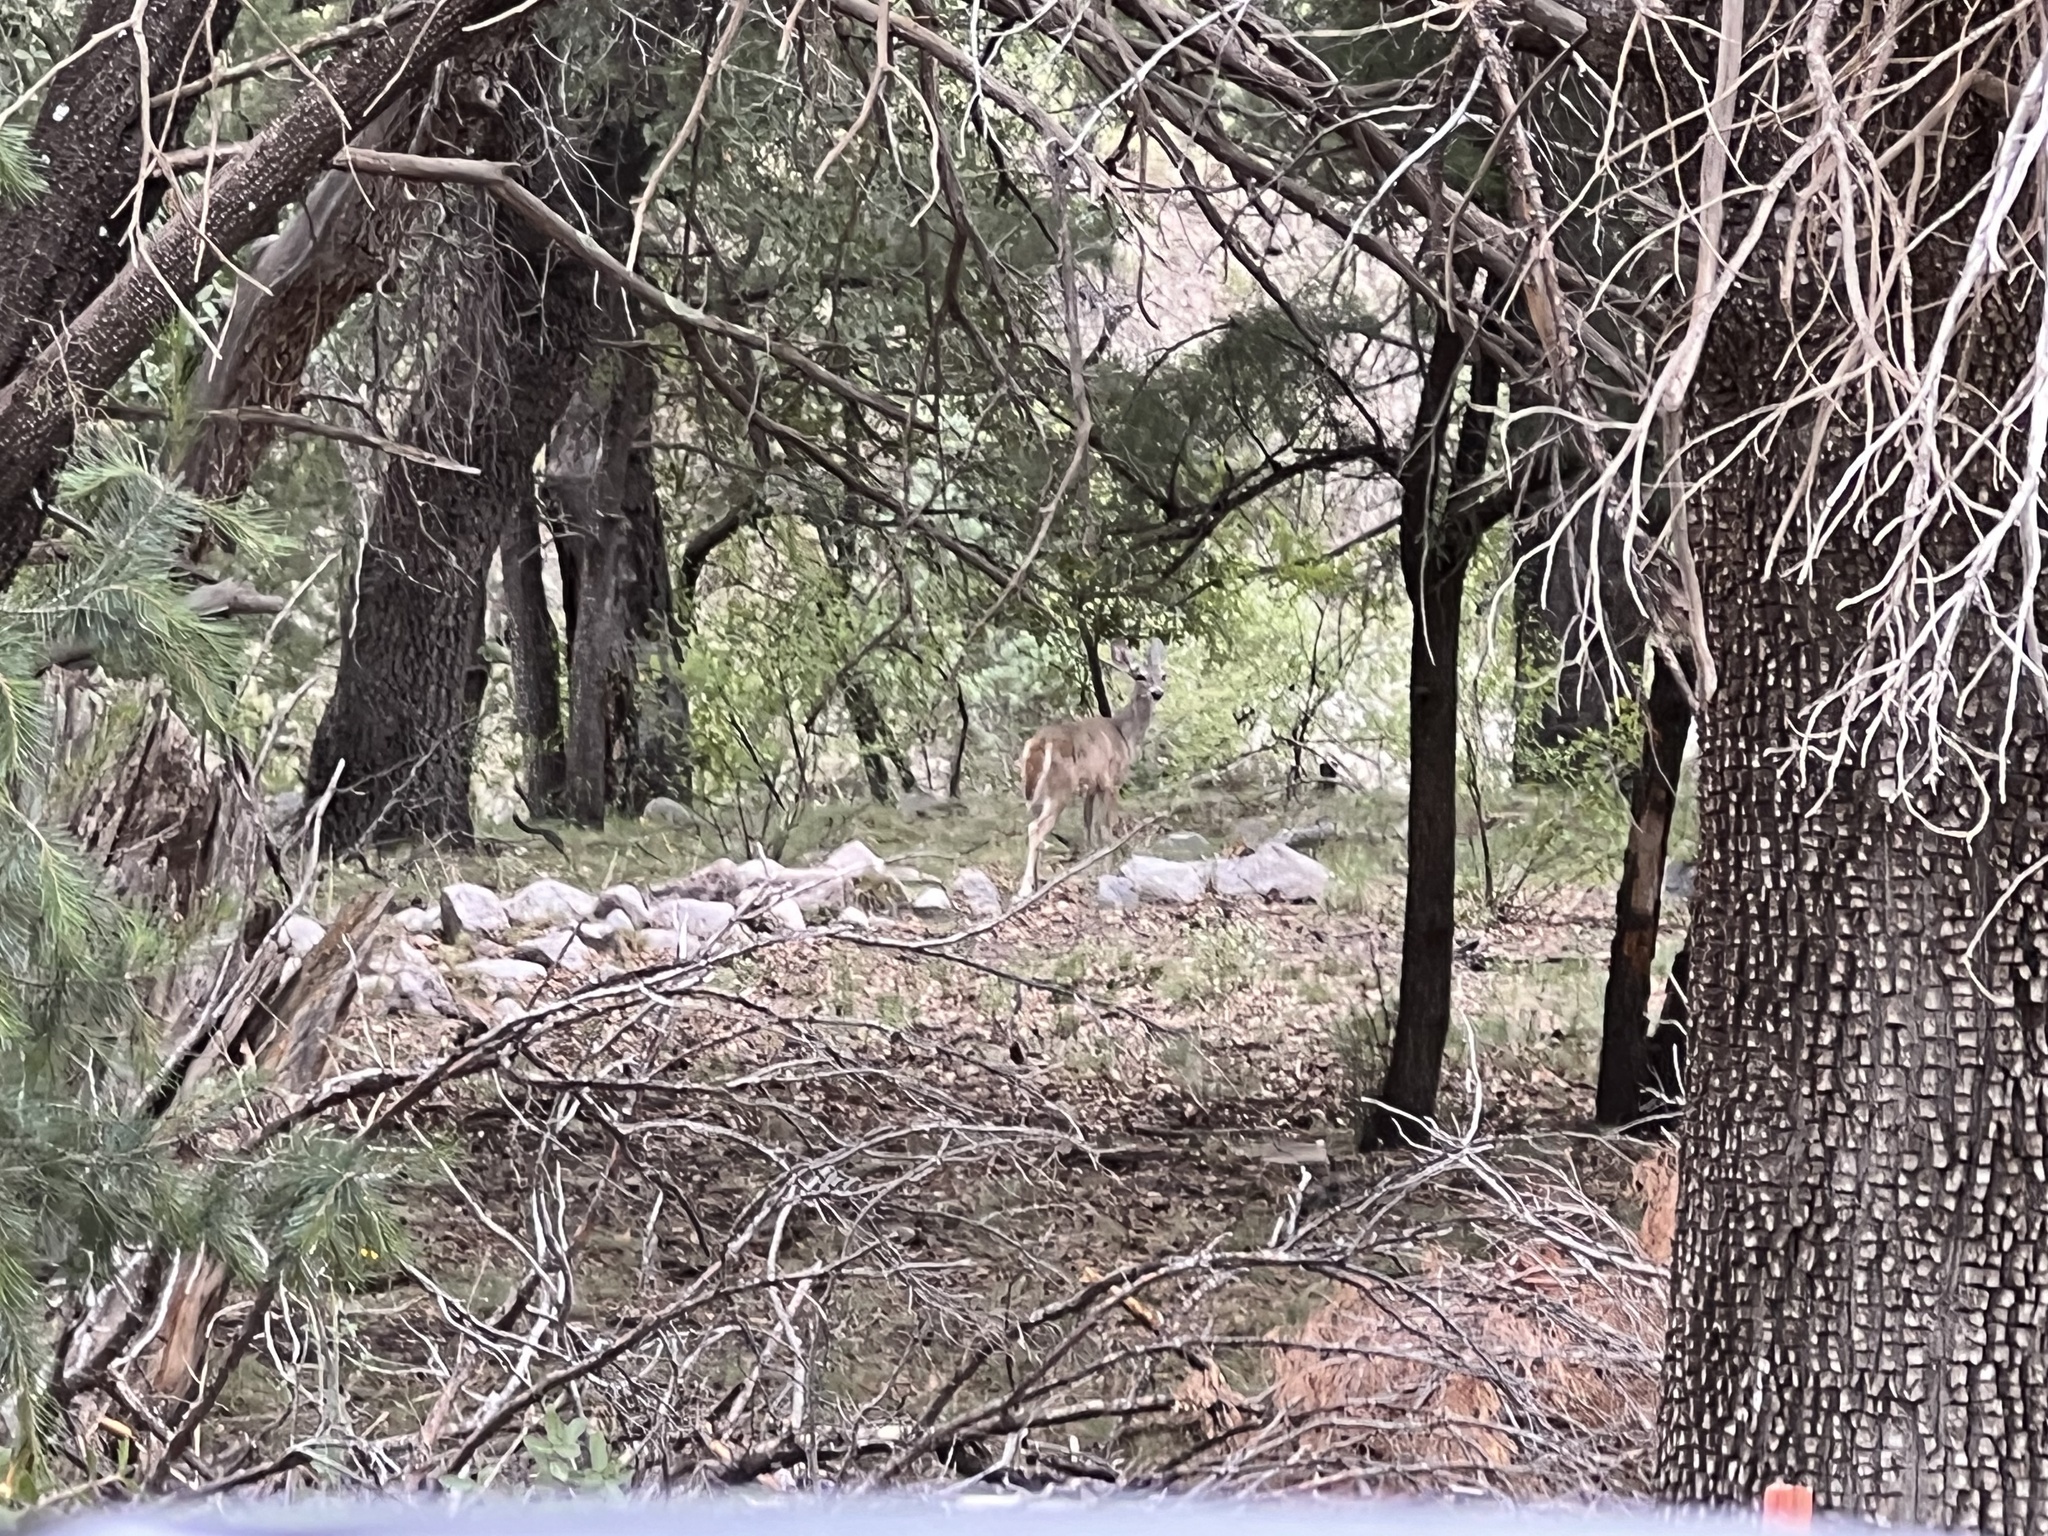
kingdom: Animalia
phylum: Chordata
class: Mammalia
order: Artiodactyla
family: Cervidae
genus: Odocoileus
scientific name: Odocoileus virginianus
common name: White-tailed deer
